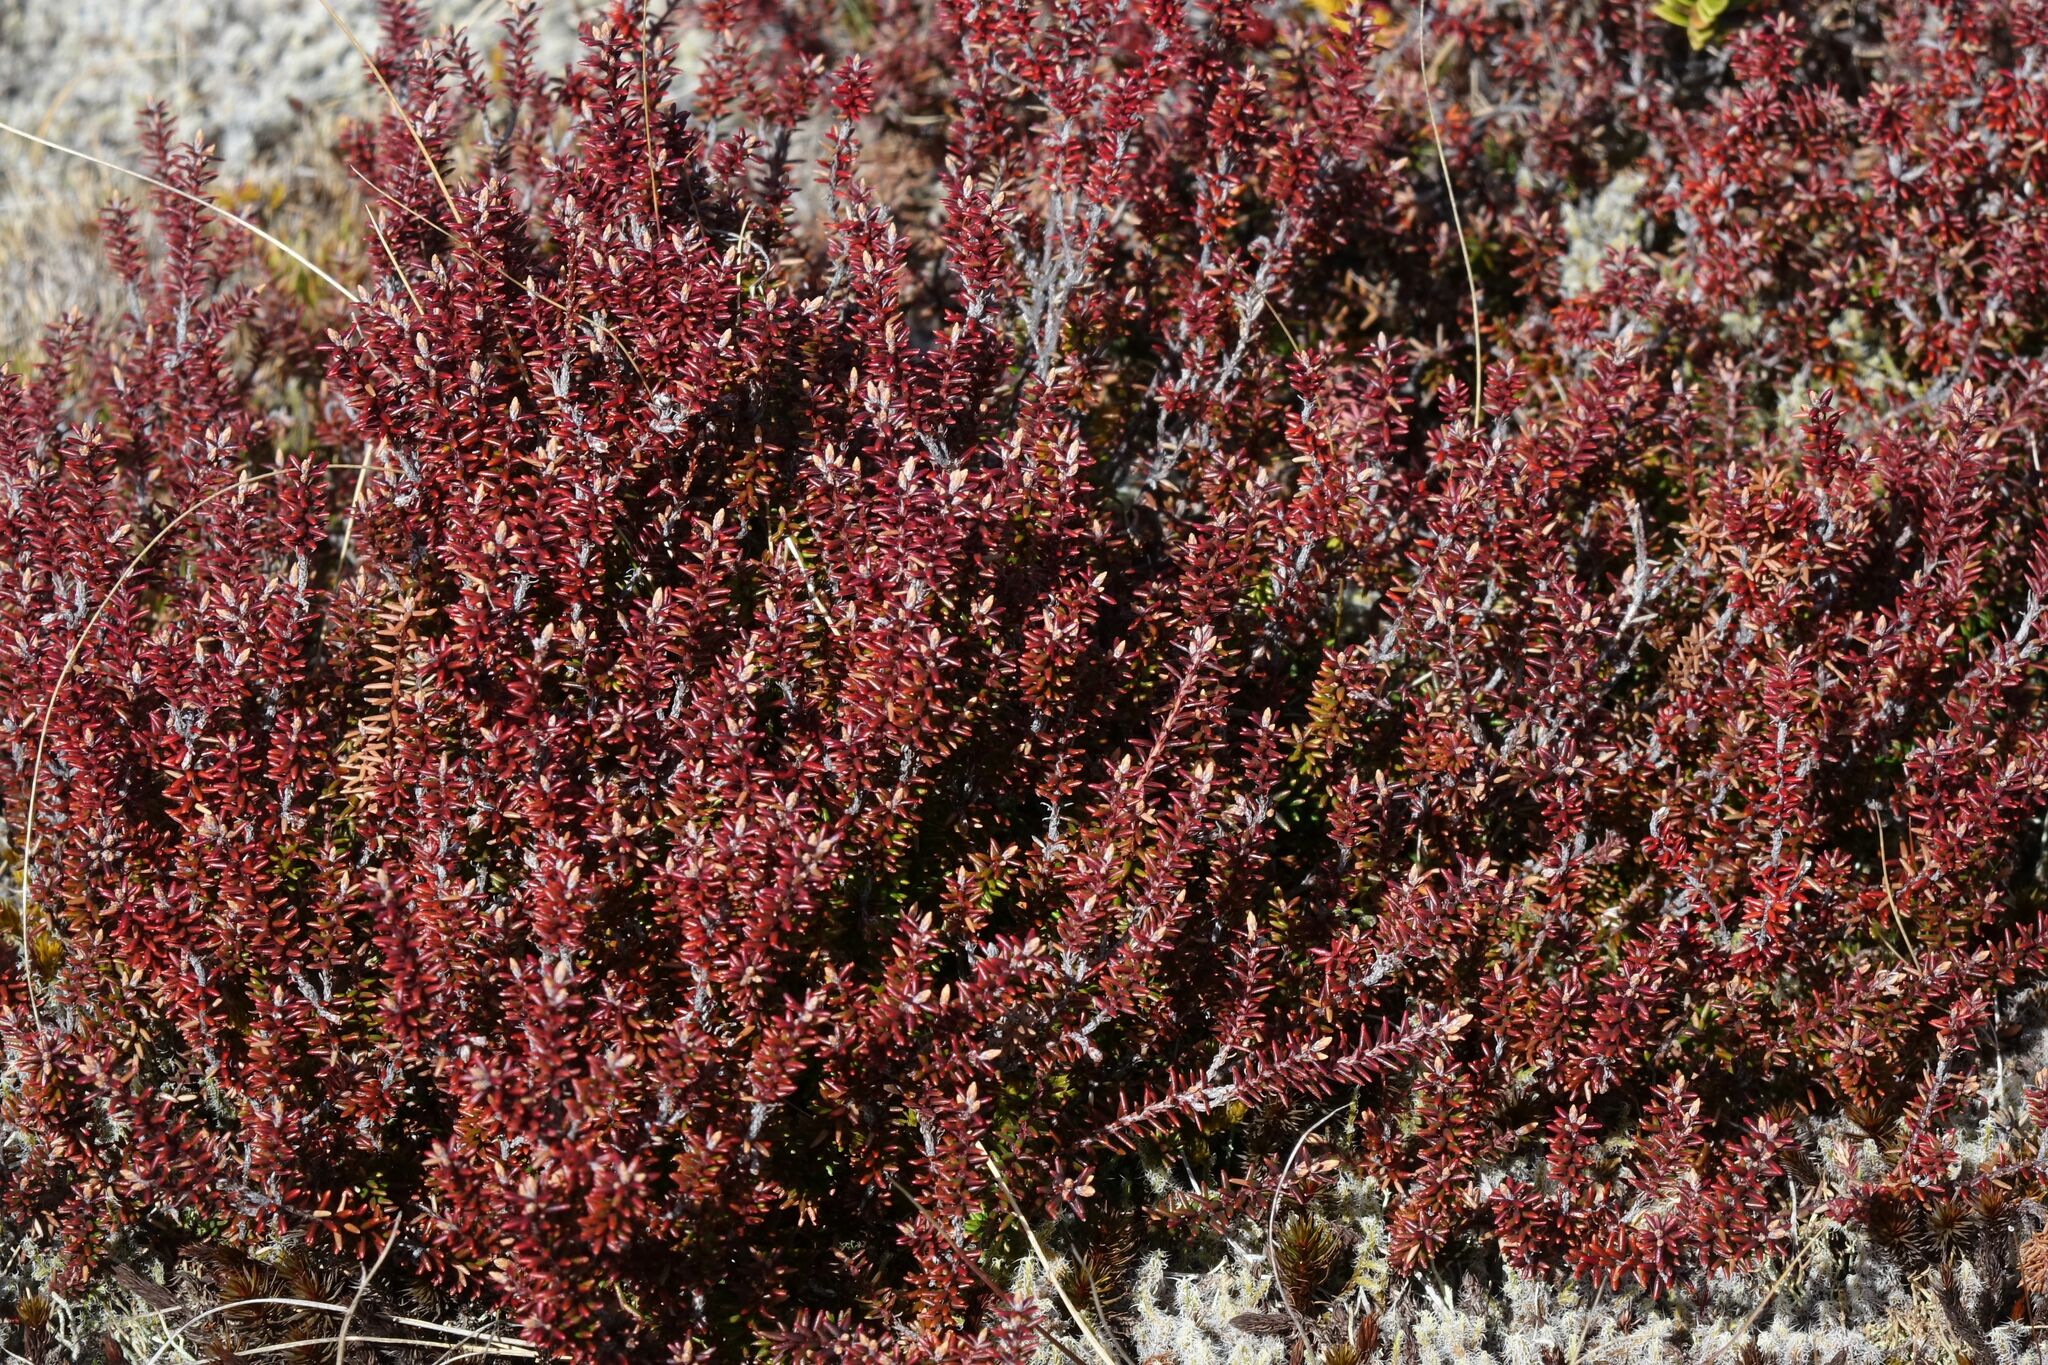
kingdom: Plantae
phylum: Tracheophyta
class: Magnoliopsida
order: Ericales
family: Ericaceae
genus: Androstoma
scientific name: Androstoma empetrifolia
